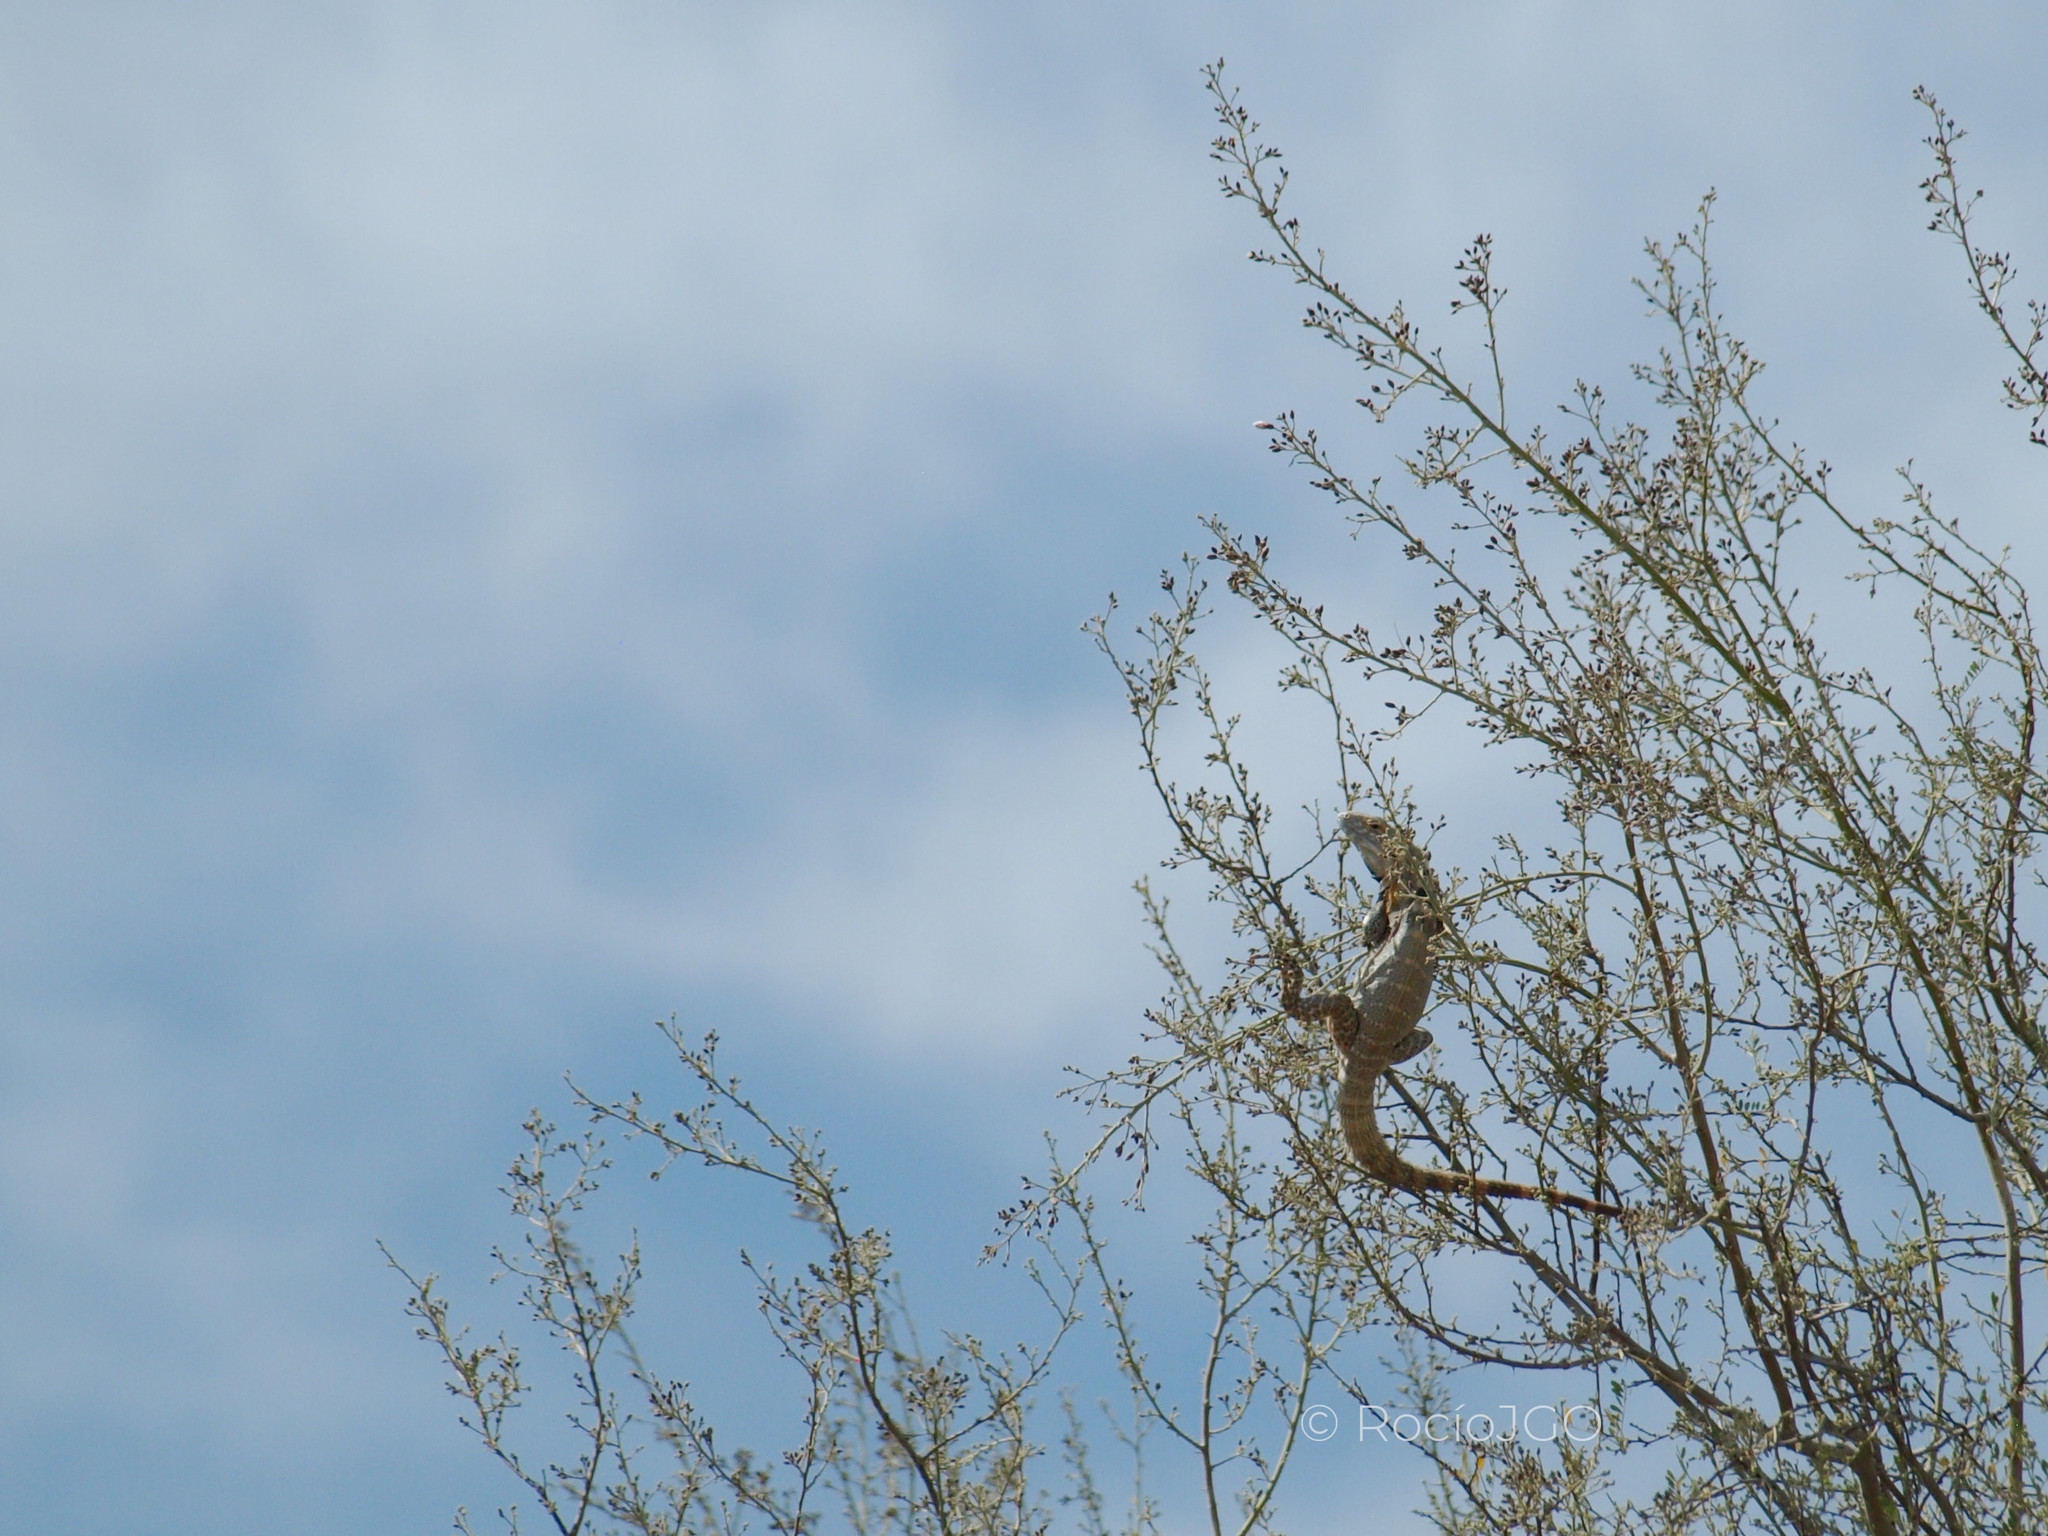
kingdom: Animalia
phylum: Chordata
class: Squamata
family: Iguanidae
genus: Ctenosaura
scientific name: Ctenosaura macrolopha
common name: Cape spinytail iguana
